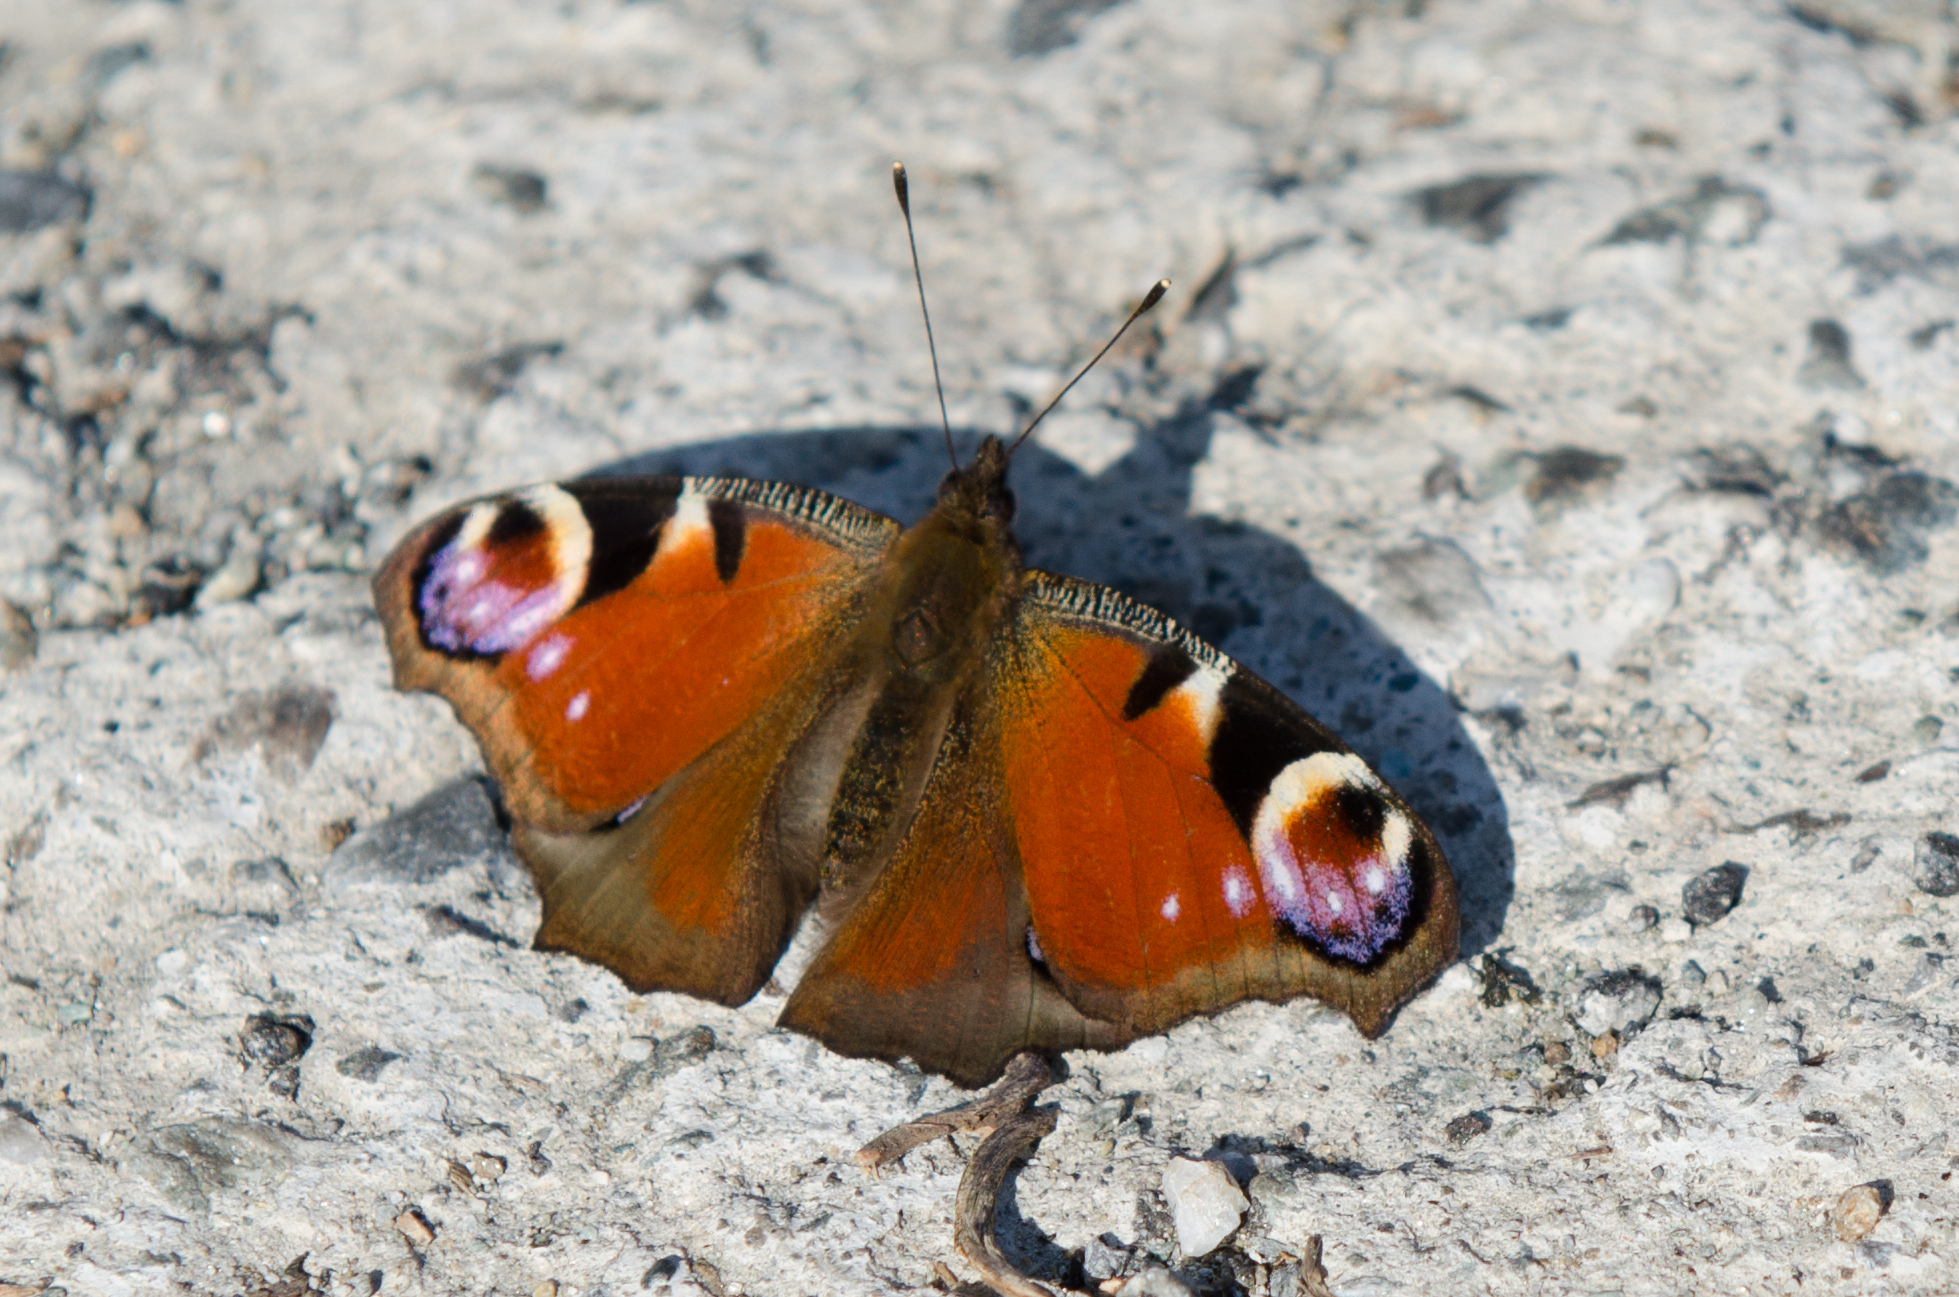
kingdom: Animalia
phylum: Arthropoda
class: Insecta
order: Lepidoptera
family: Nymphalidae
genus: Aglais
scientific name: Aglais io
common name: Peacock
